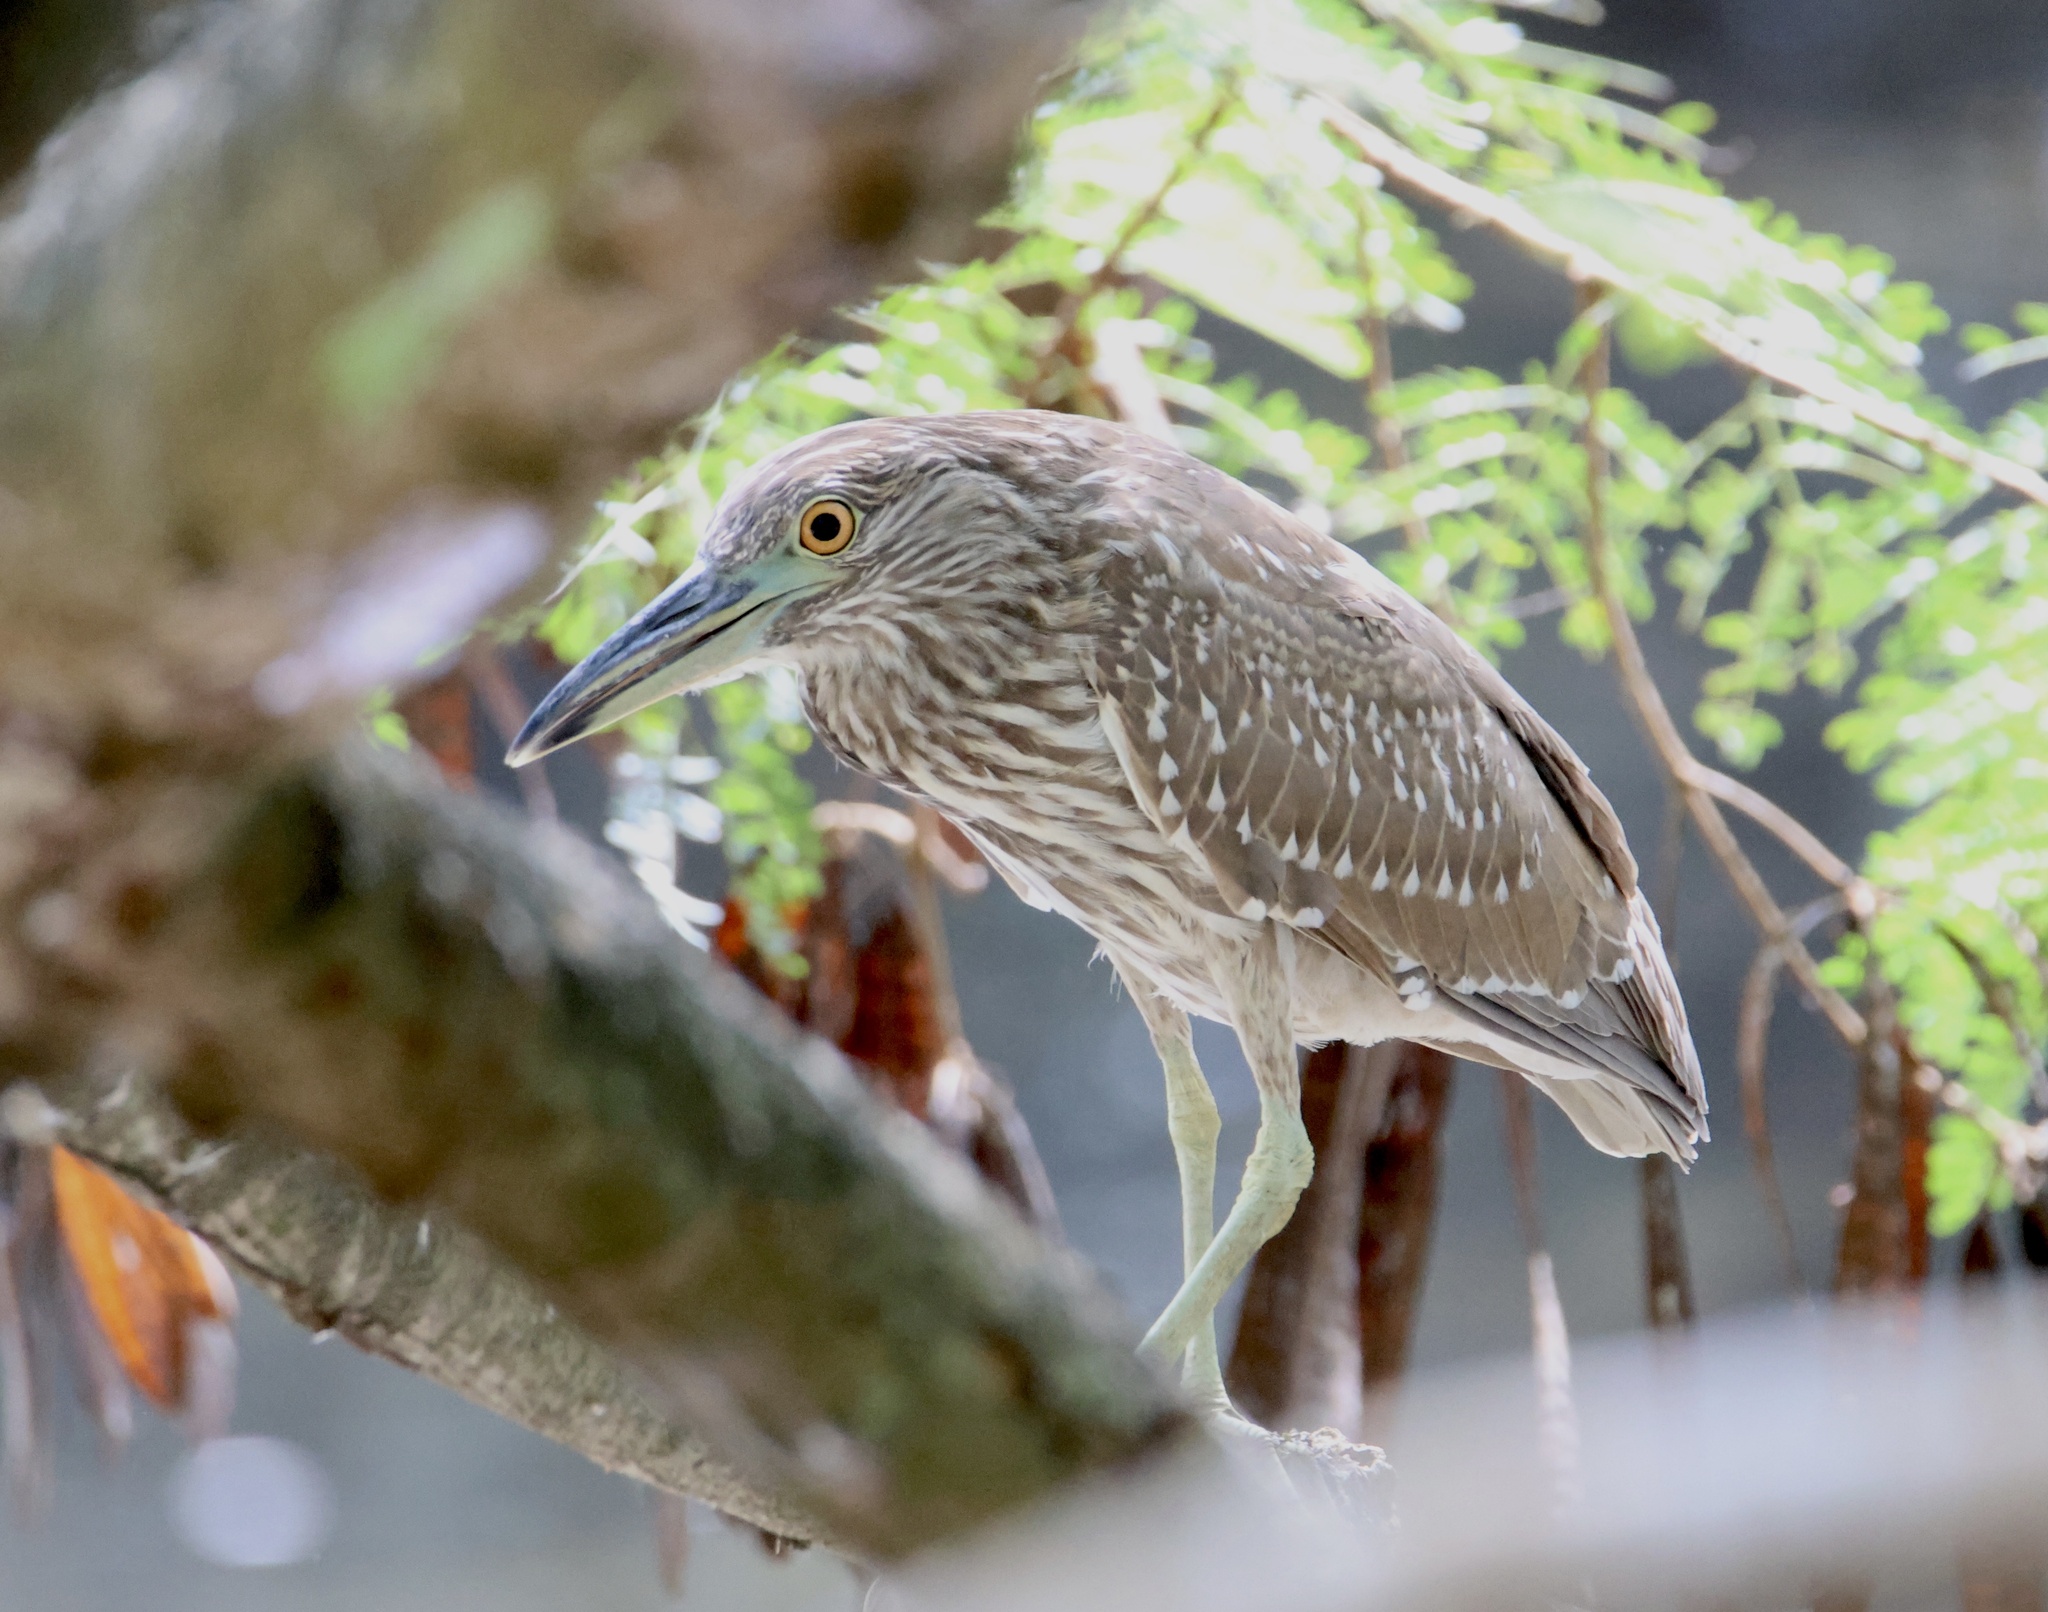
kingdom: Animalia
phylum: Chordata
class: Aves
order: Pelecaniformes
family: Ardeidae
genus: Nycticorax
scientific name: Nycticorax nycticorax
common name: Black-crowned night heron
